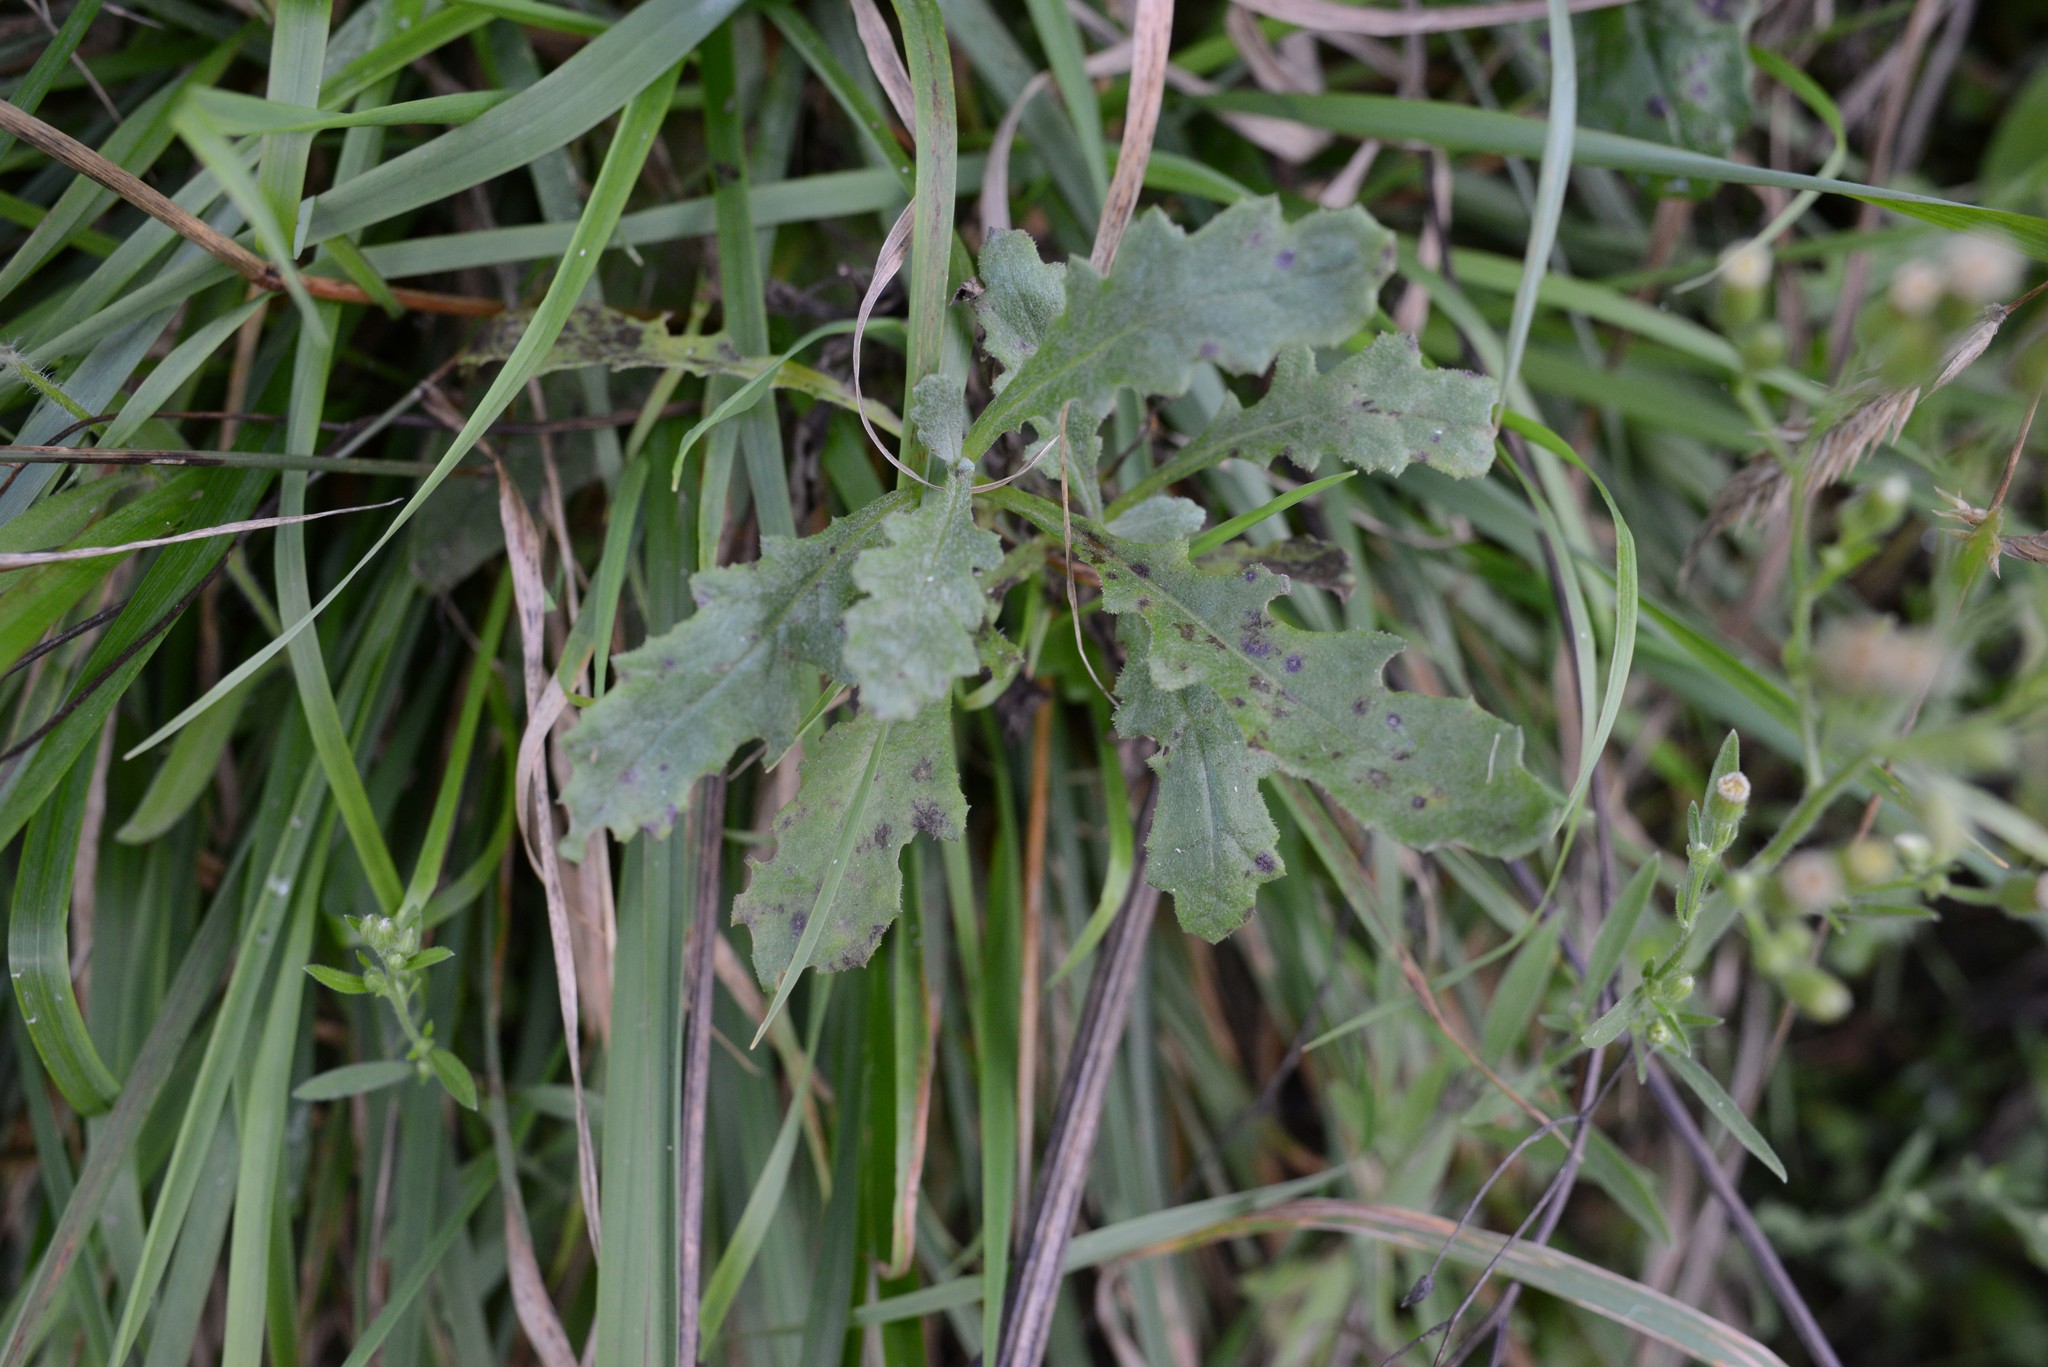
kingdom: Plantae
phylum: Tracheophyta
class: Magnoliopsida
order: Asterales
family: Asteraceae
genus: Senecio
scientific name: Senecio glomeratus
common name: Cutleaf burnweed
